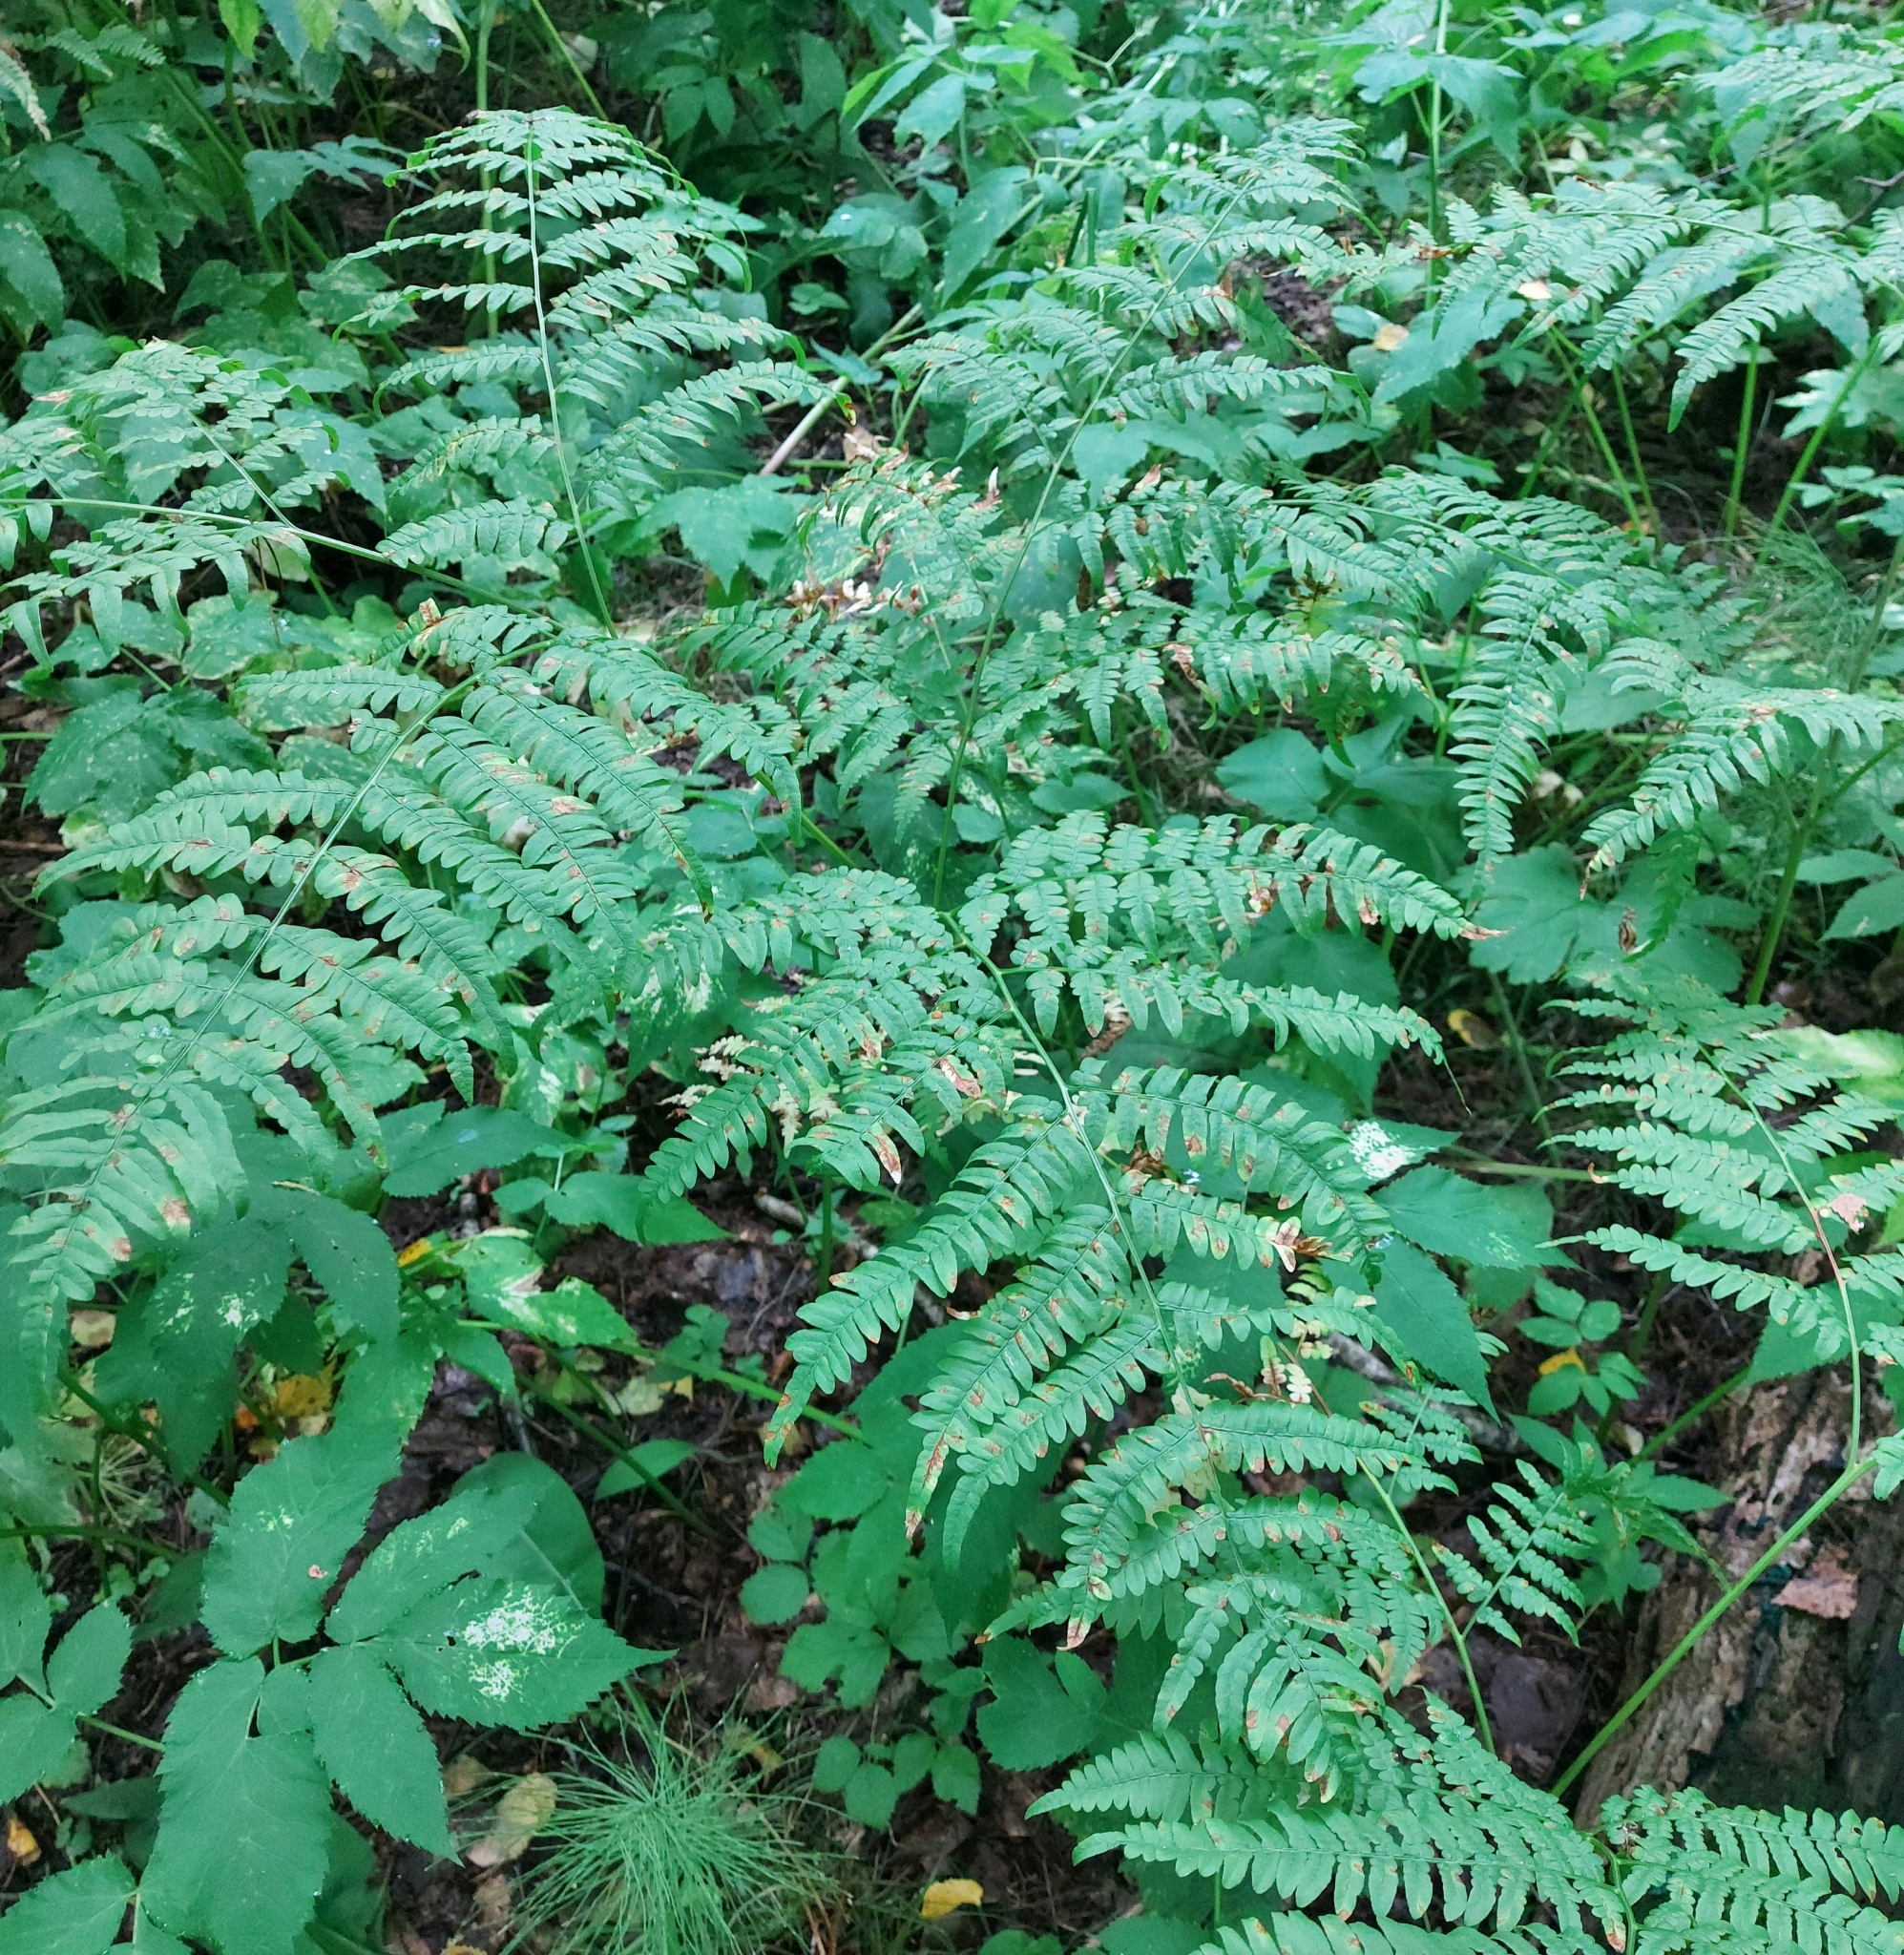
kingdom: Plantae
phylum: Tracheophyta
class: Polypodiopsida
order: Polypodiales
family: Dennstaedtiaceae
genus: Pteridium
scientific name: Pteridium aquilinum
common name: Bracken
